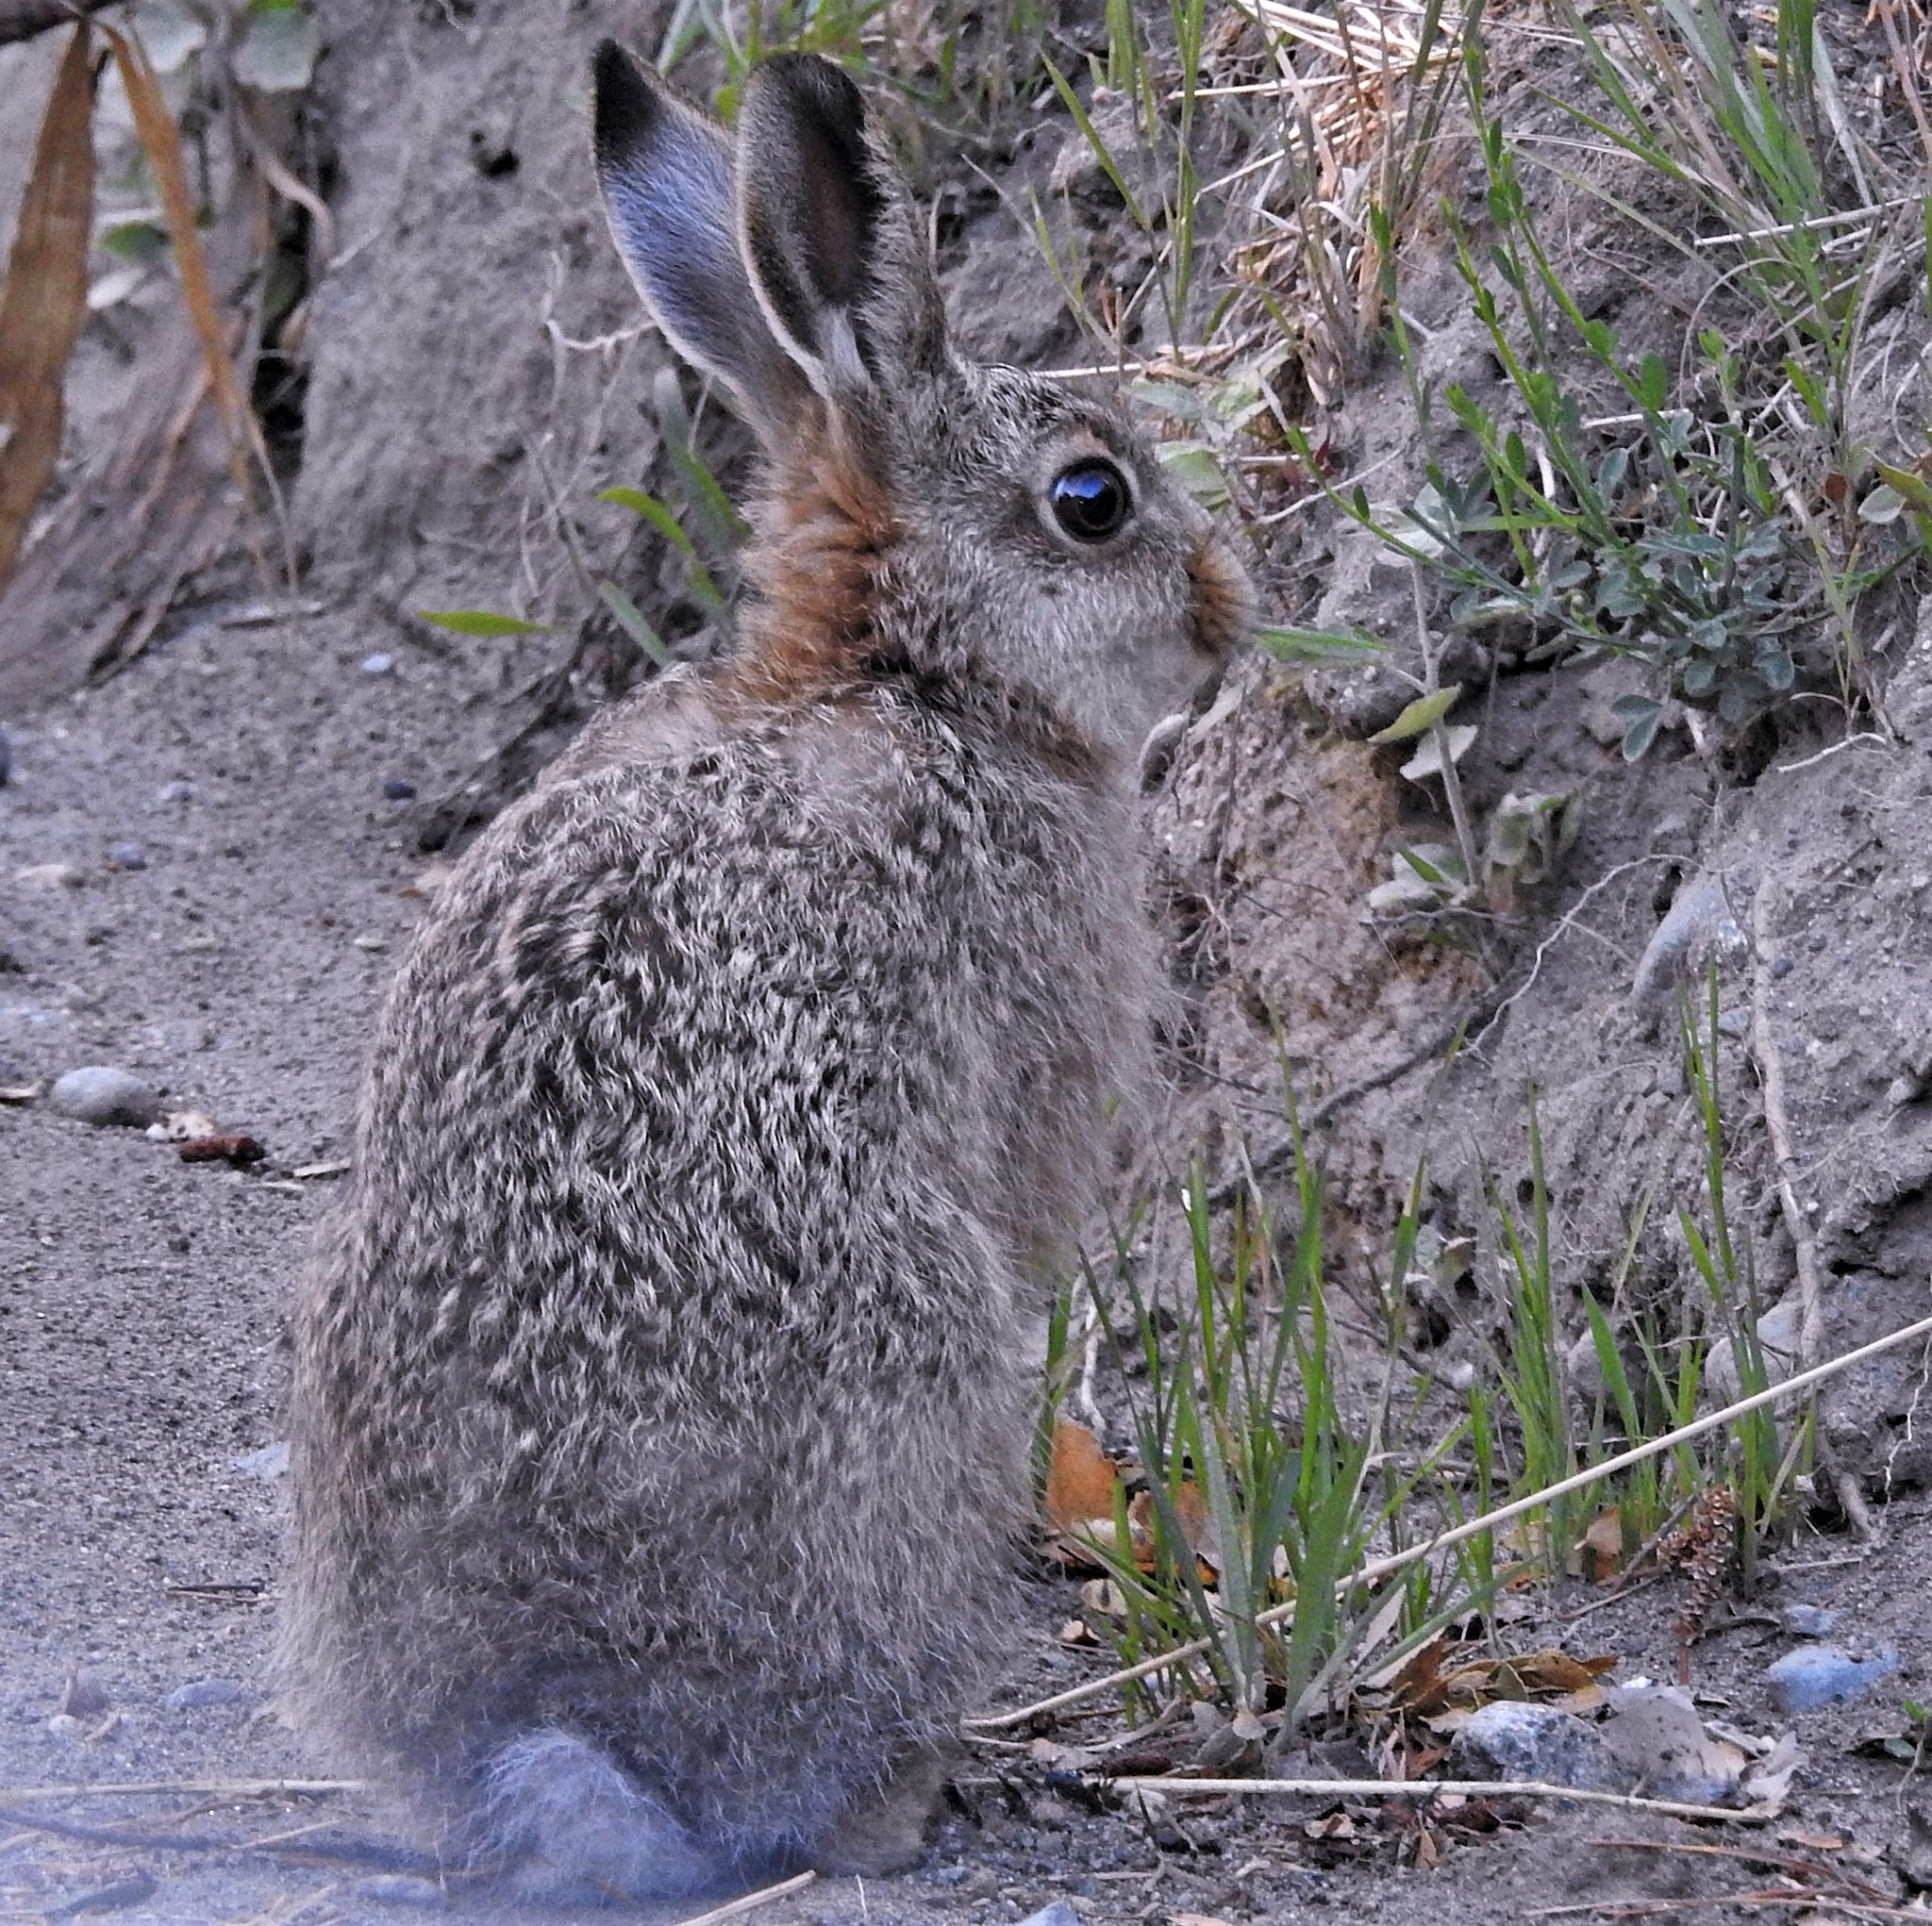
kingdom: Animalia
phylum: Chordata
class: Mammalia
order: Lagomorpha
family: Leporidae
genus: Oryctolagus
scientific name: Oryctolagus cuniculus
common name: European rabbit
